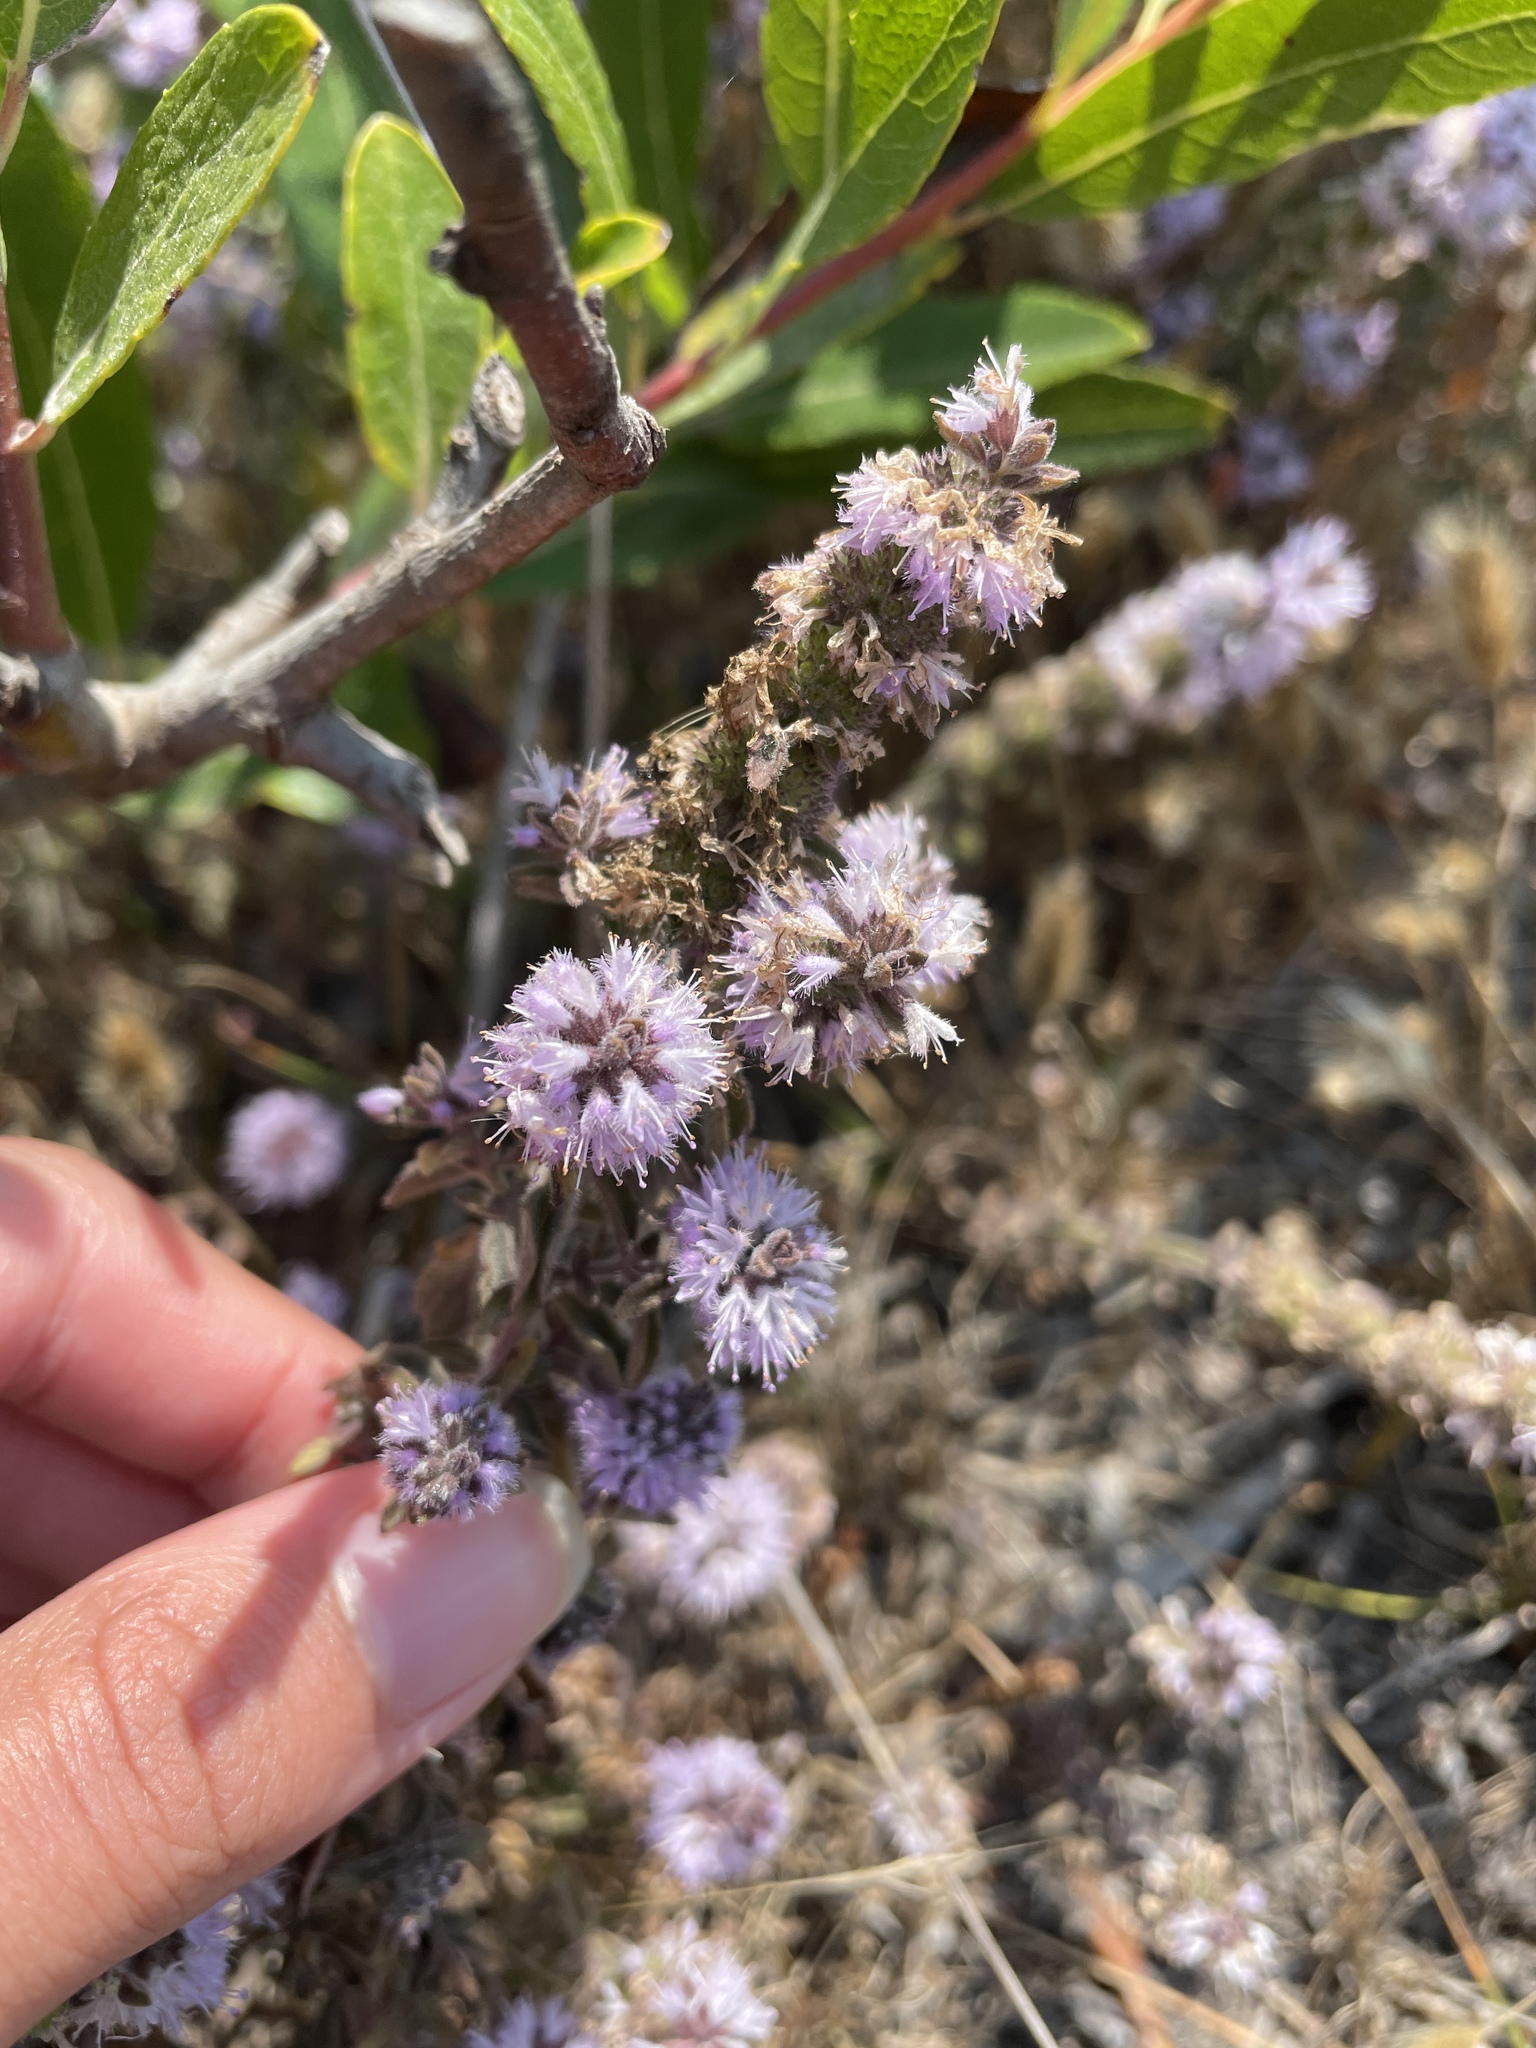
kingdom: Plantae
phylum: Tracheophyta
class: Magnoliopsida
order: Lamiales
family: Lamiaceae
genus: Mentha
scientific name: Mentha pulegium
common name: Pennyroyal
